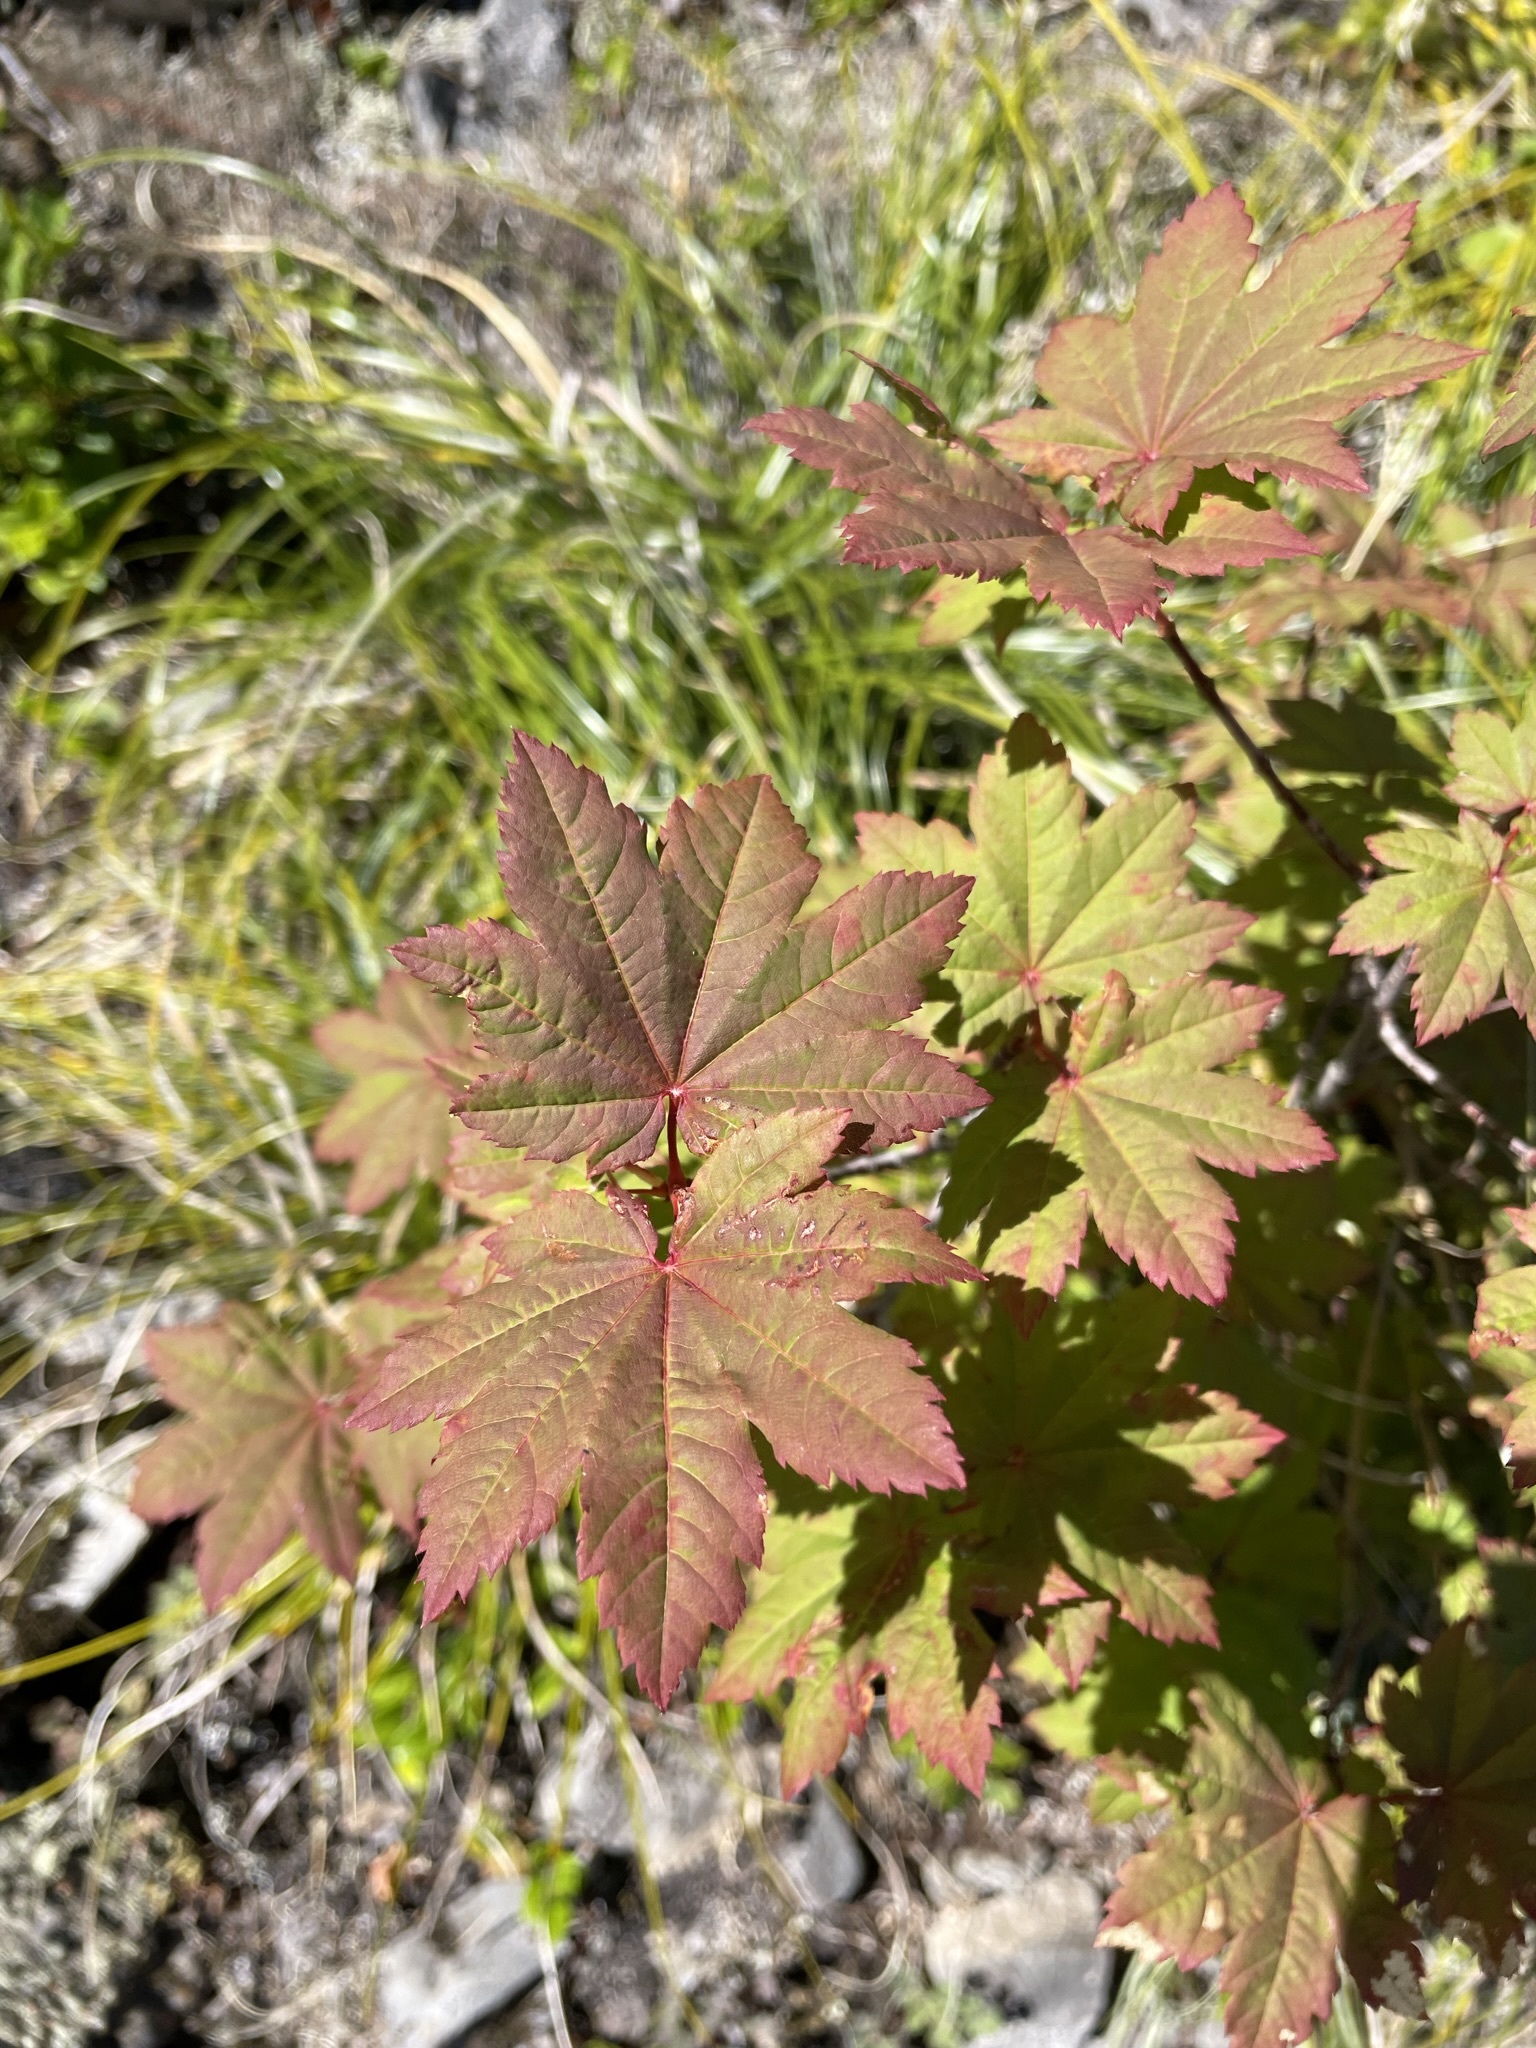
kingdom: Plantae
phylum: Tracheophyta
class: Magnoliopsida
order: Sapindales
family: Sapindaceae
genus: Acer
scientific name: Acer circinatum
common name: Vine maple
